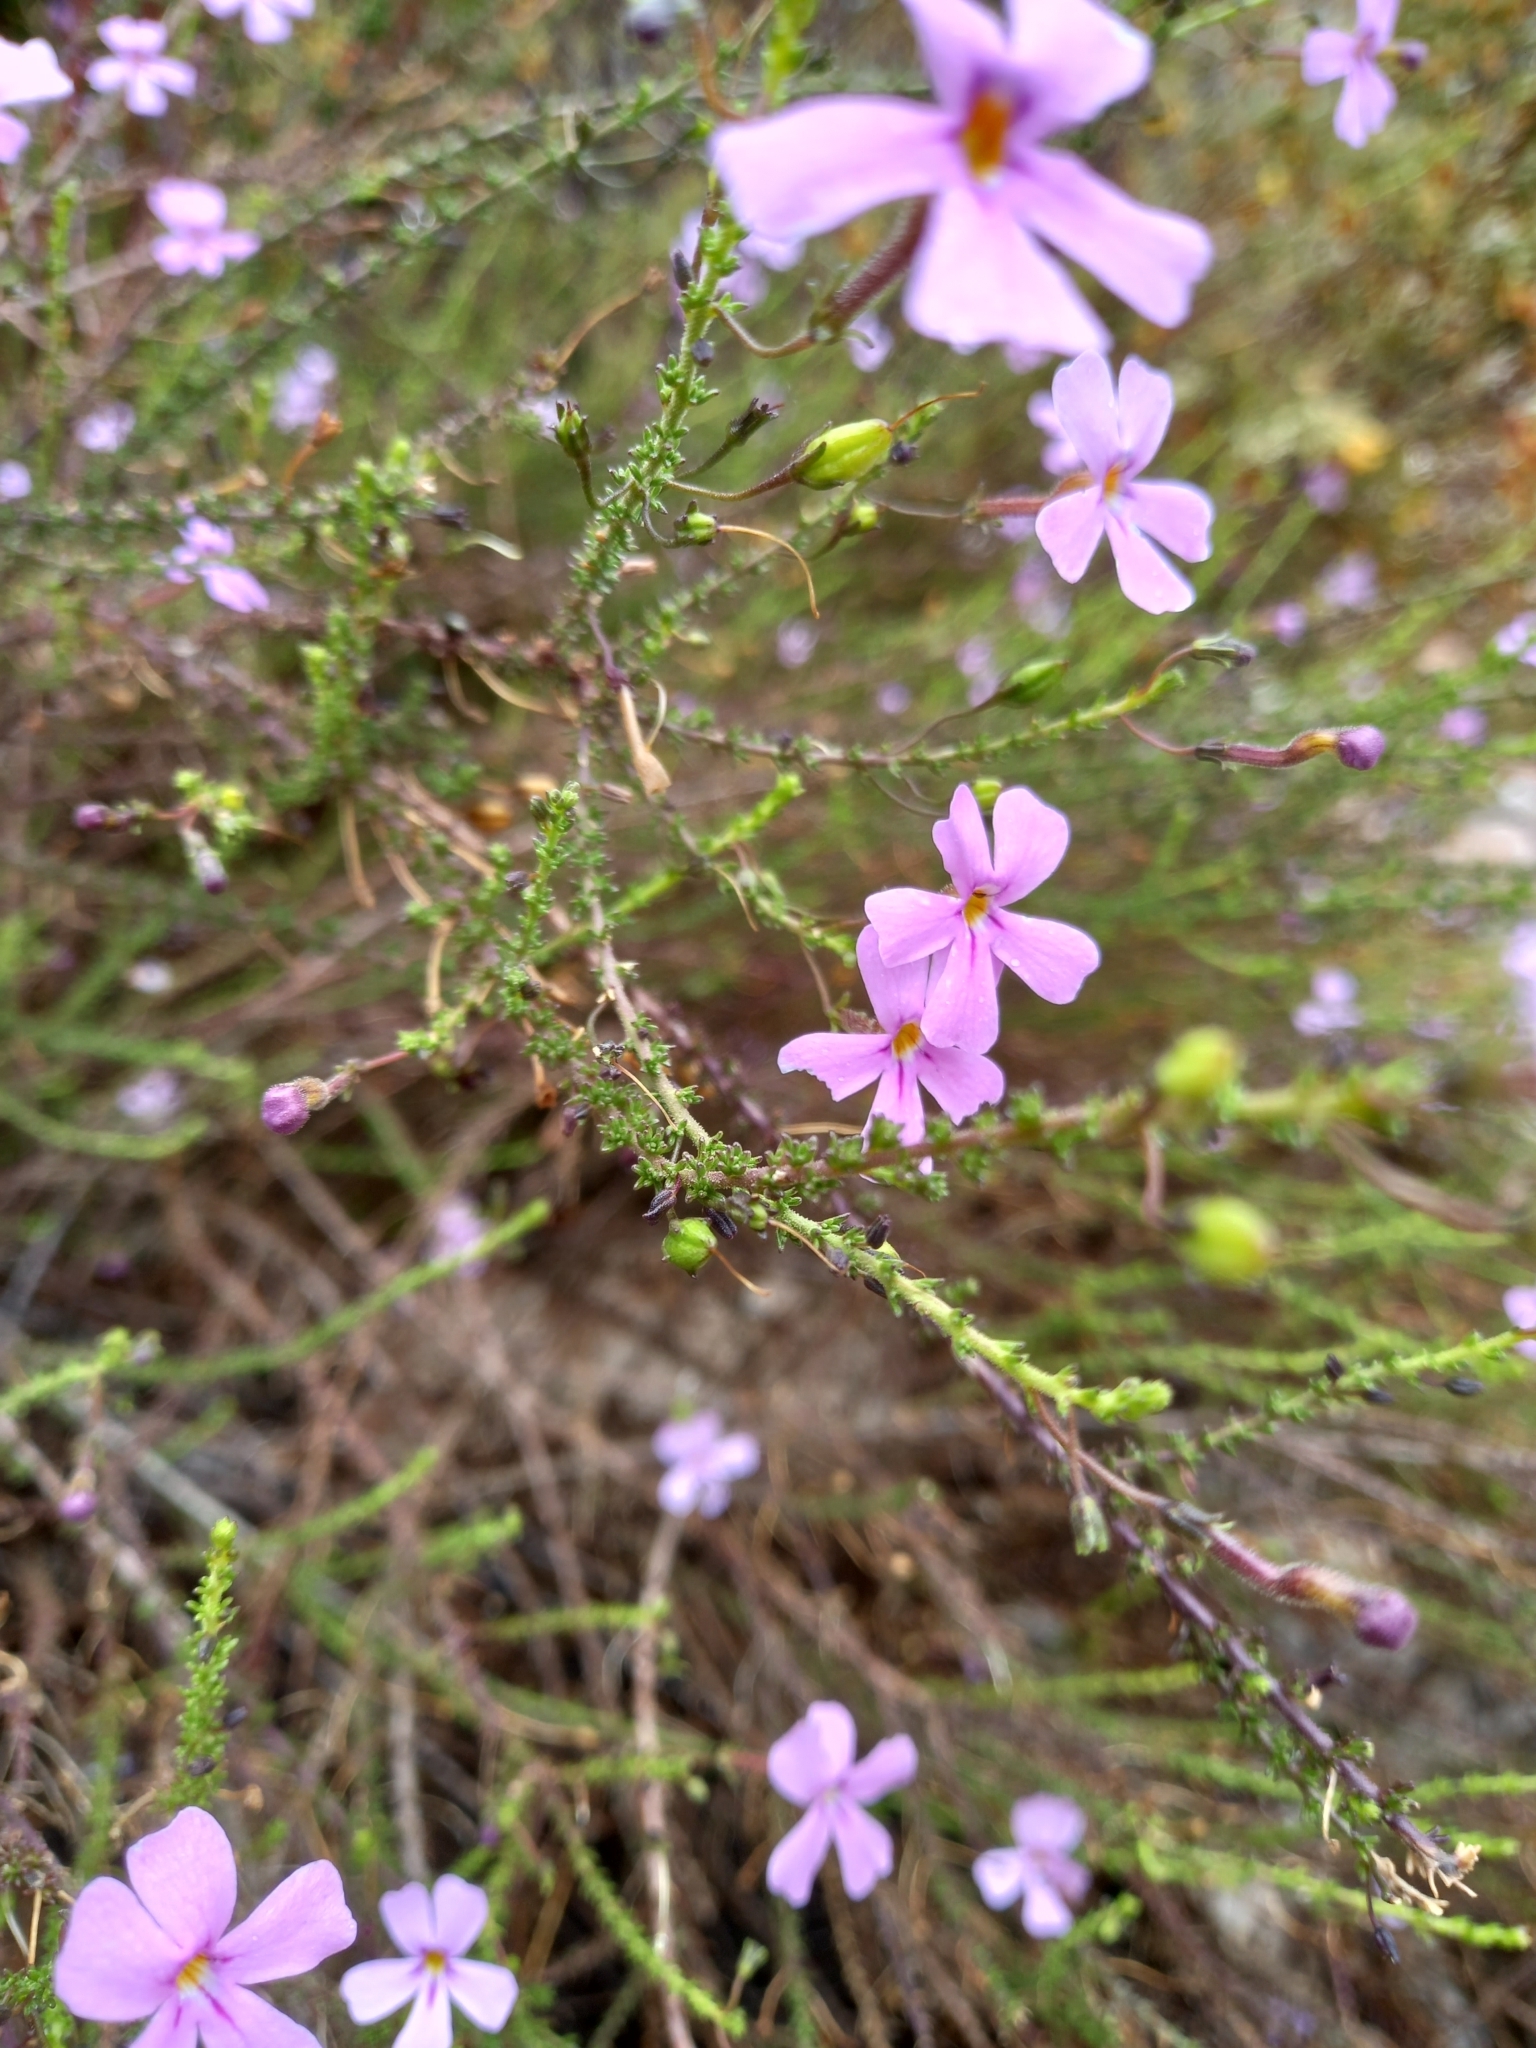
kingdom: Plantae
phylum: Tracheophyta
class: Magnoliopsida
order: Lamiales
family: Scrophulariaceae
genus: Jamesbrittenia
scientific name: Jamesbrittenia aspalathoides
